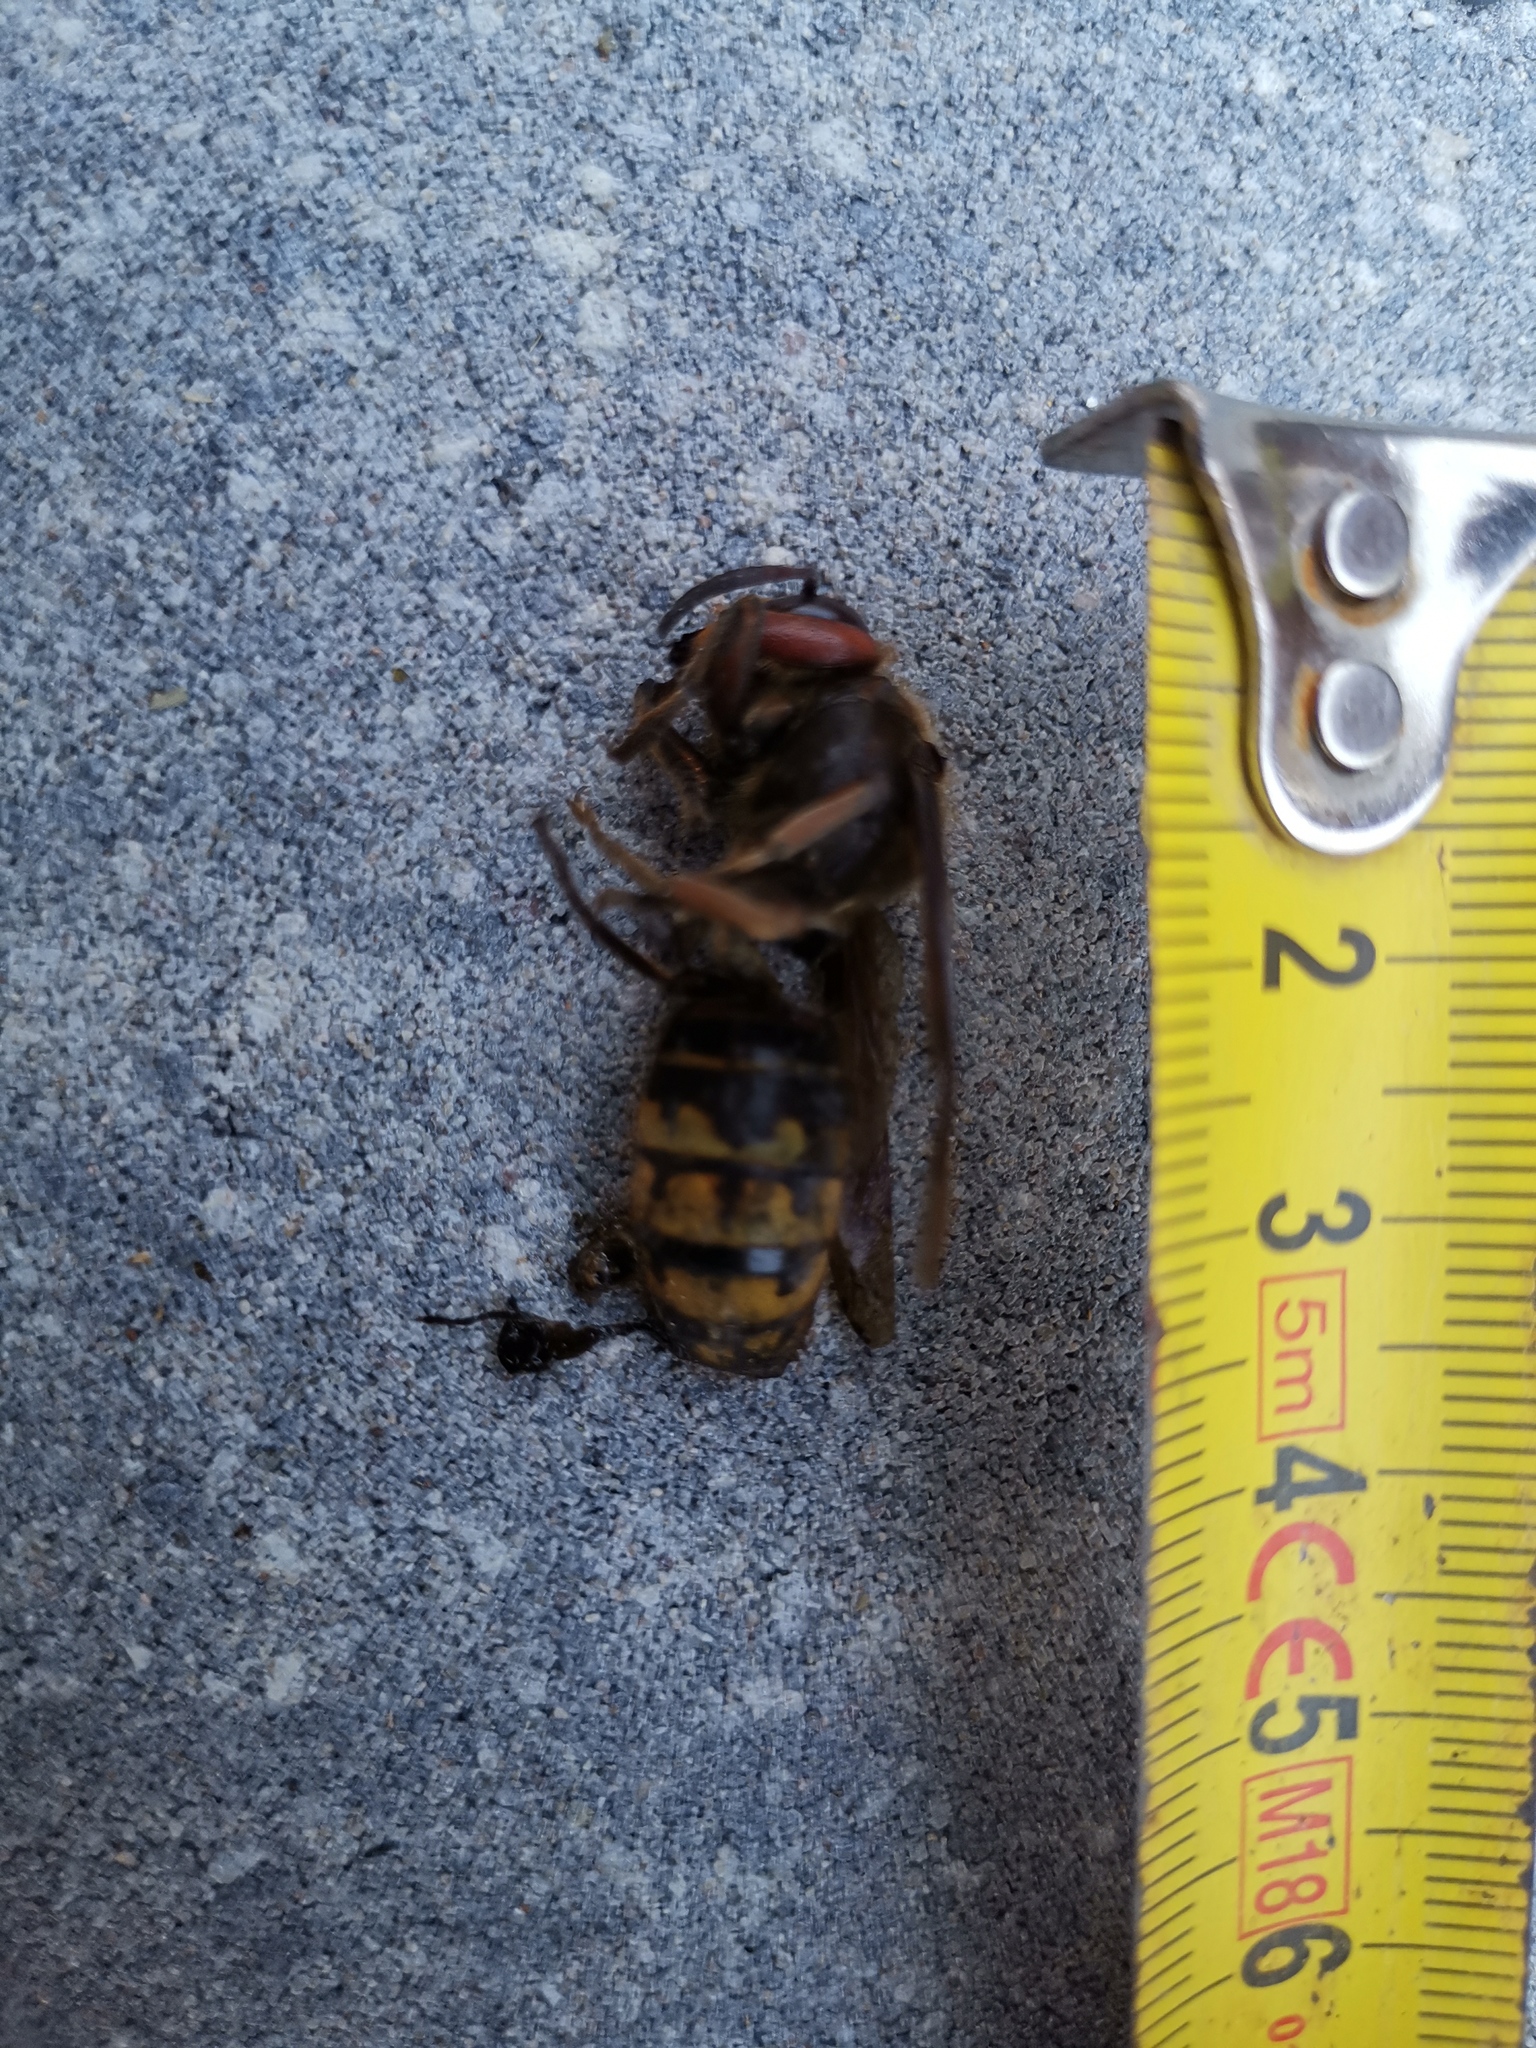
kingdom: Animalia
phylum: Arthropoda
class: Insecta
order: Hymenoptera
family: Vespidae
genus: Vespa
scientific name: Vespa crabro
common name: Hornet
